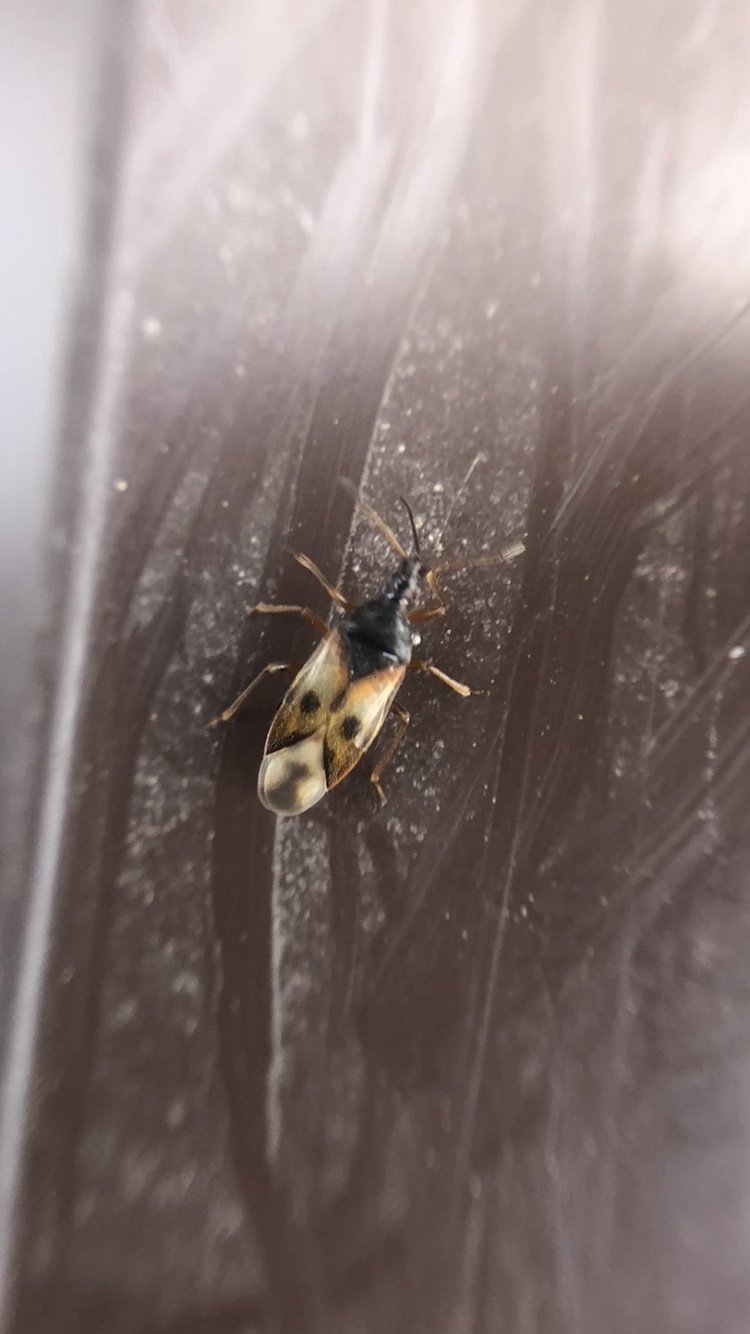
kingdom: Animalia
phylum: Arthropoda
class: Insecta
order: Hemiptera
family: Anthocoridae
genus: Anthocoris
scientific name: Anthocoris nemorum
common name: Minute pirate bug
